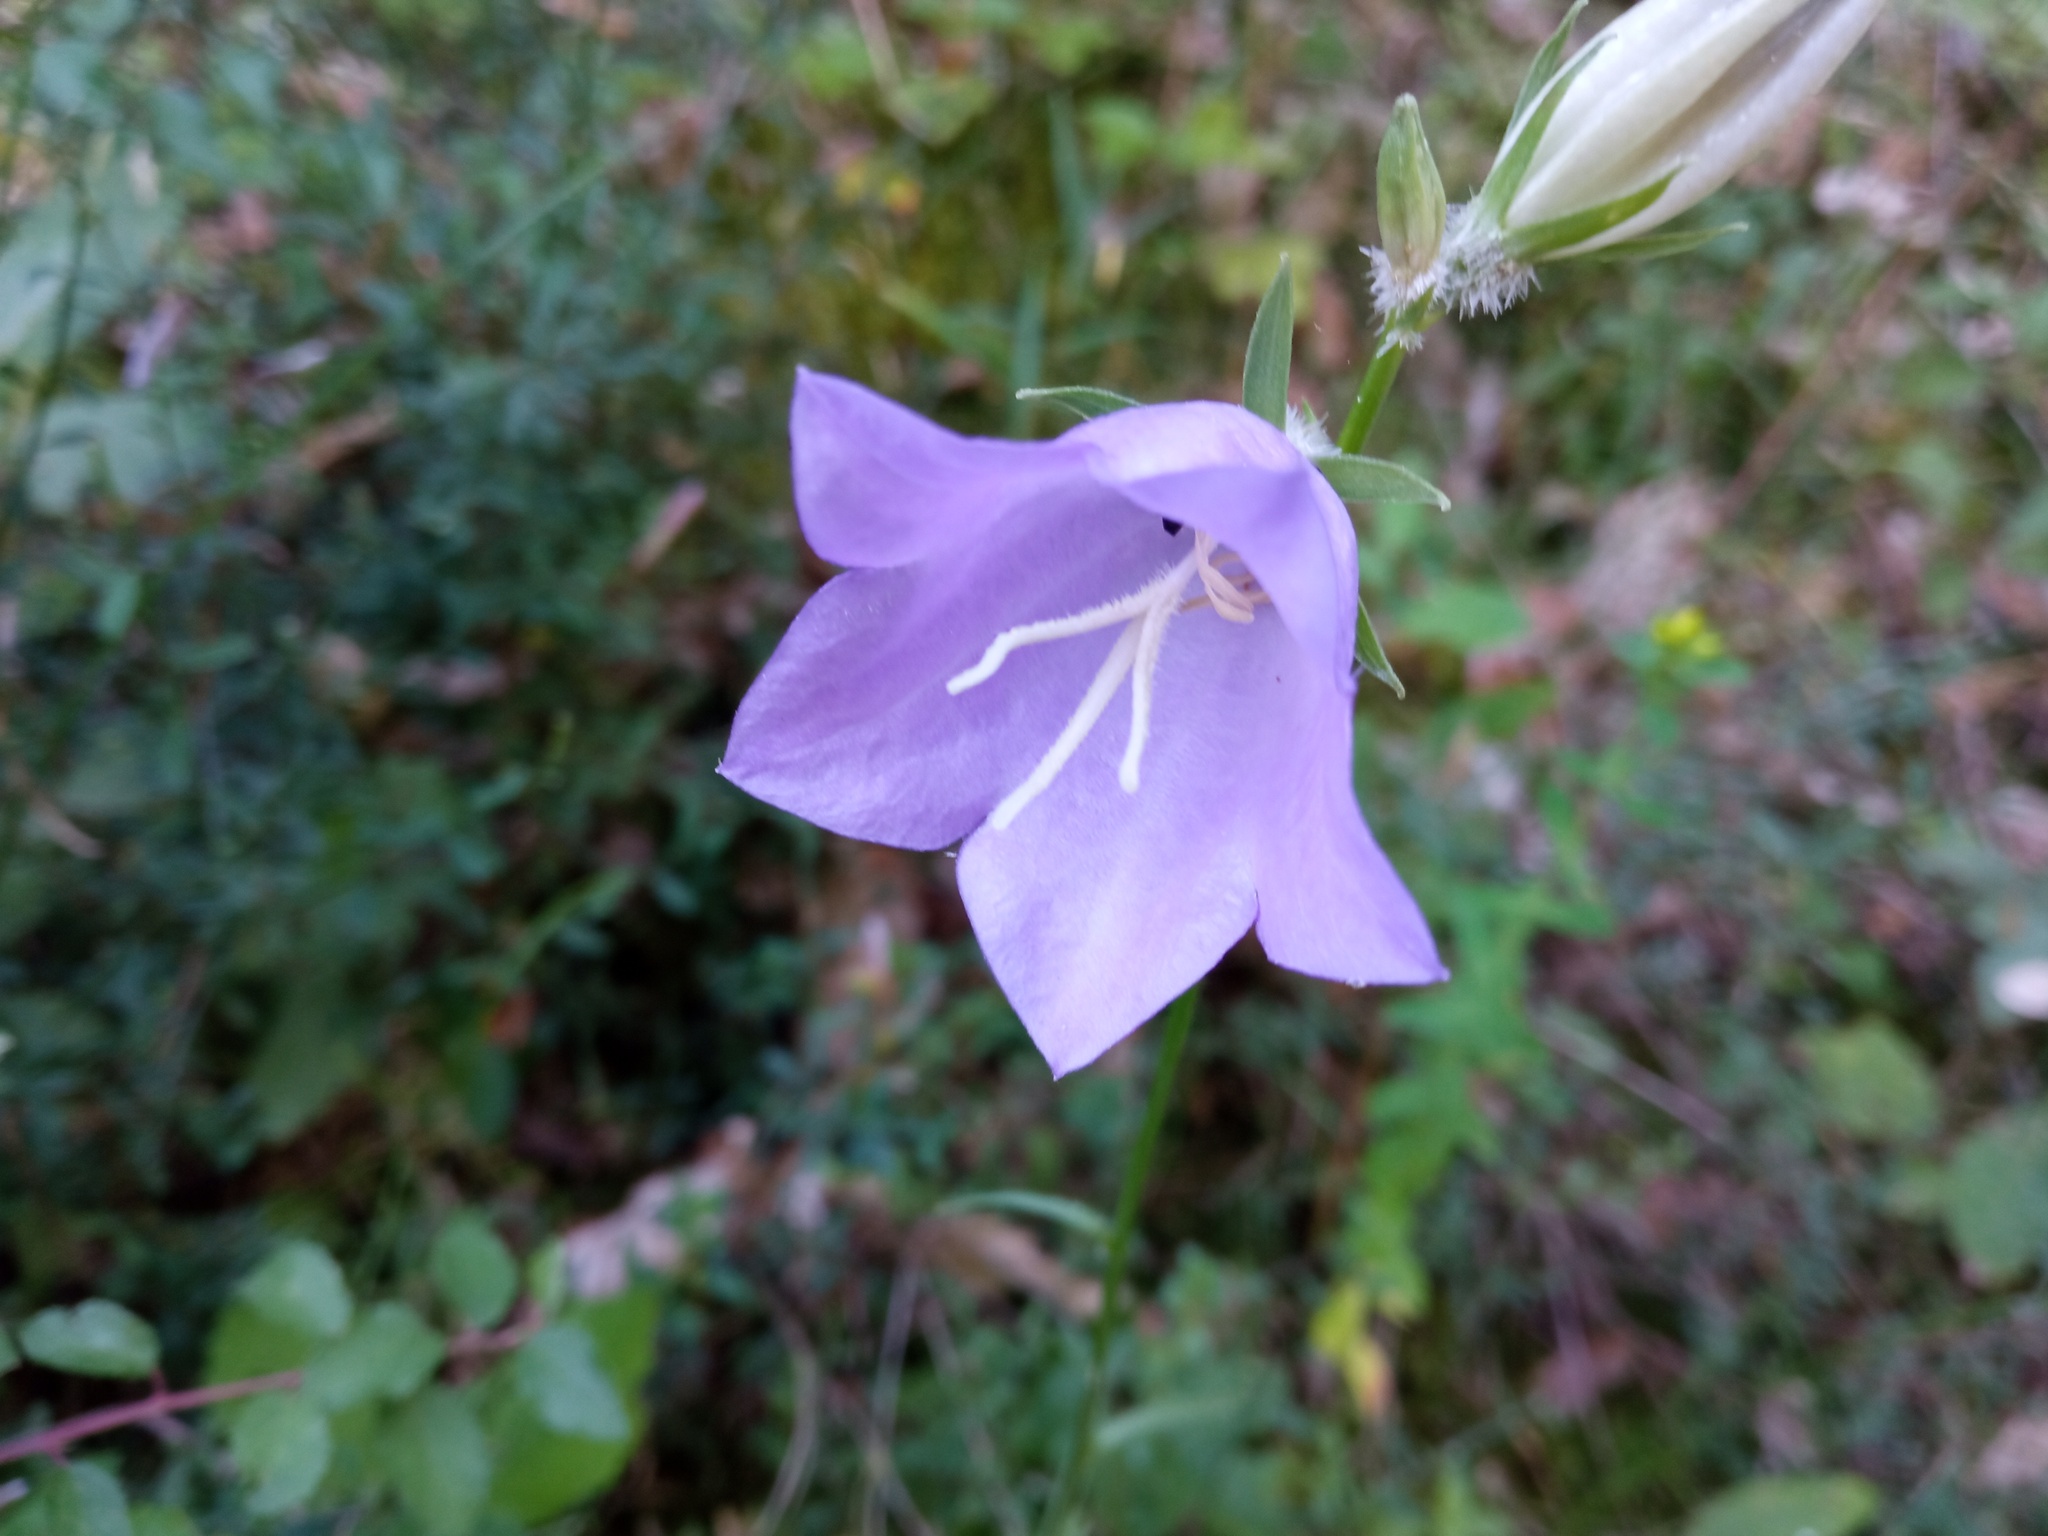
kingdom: Plantae
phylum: Tracheophyta
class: Magnoliopsida
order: Asterales
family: Campanulaceae
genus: Campanula
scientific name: Campanula persicifolia
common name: Peach-leaved bellflower
